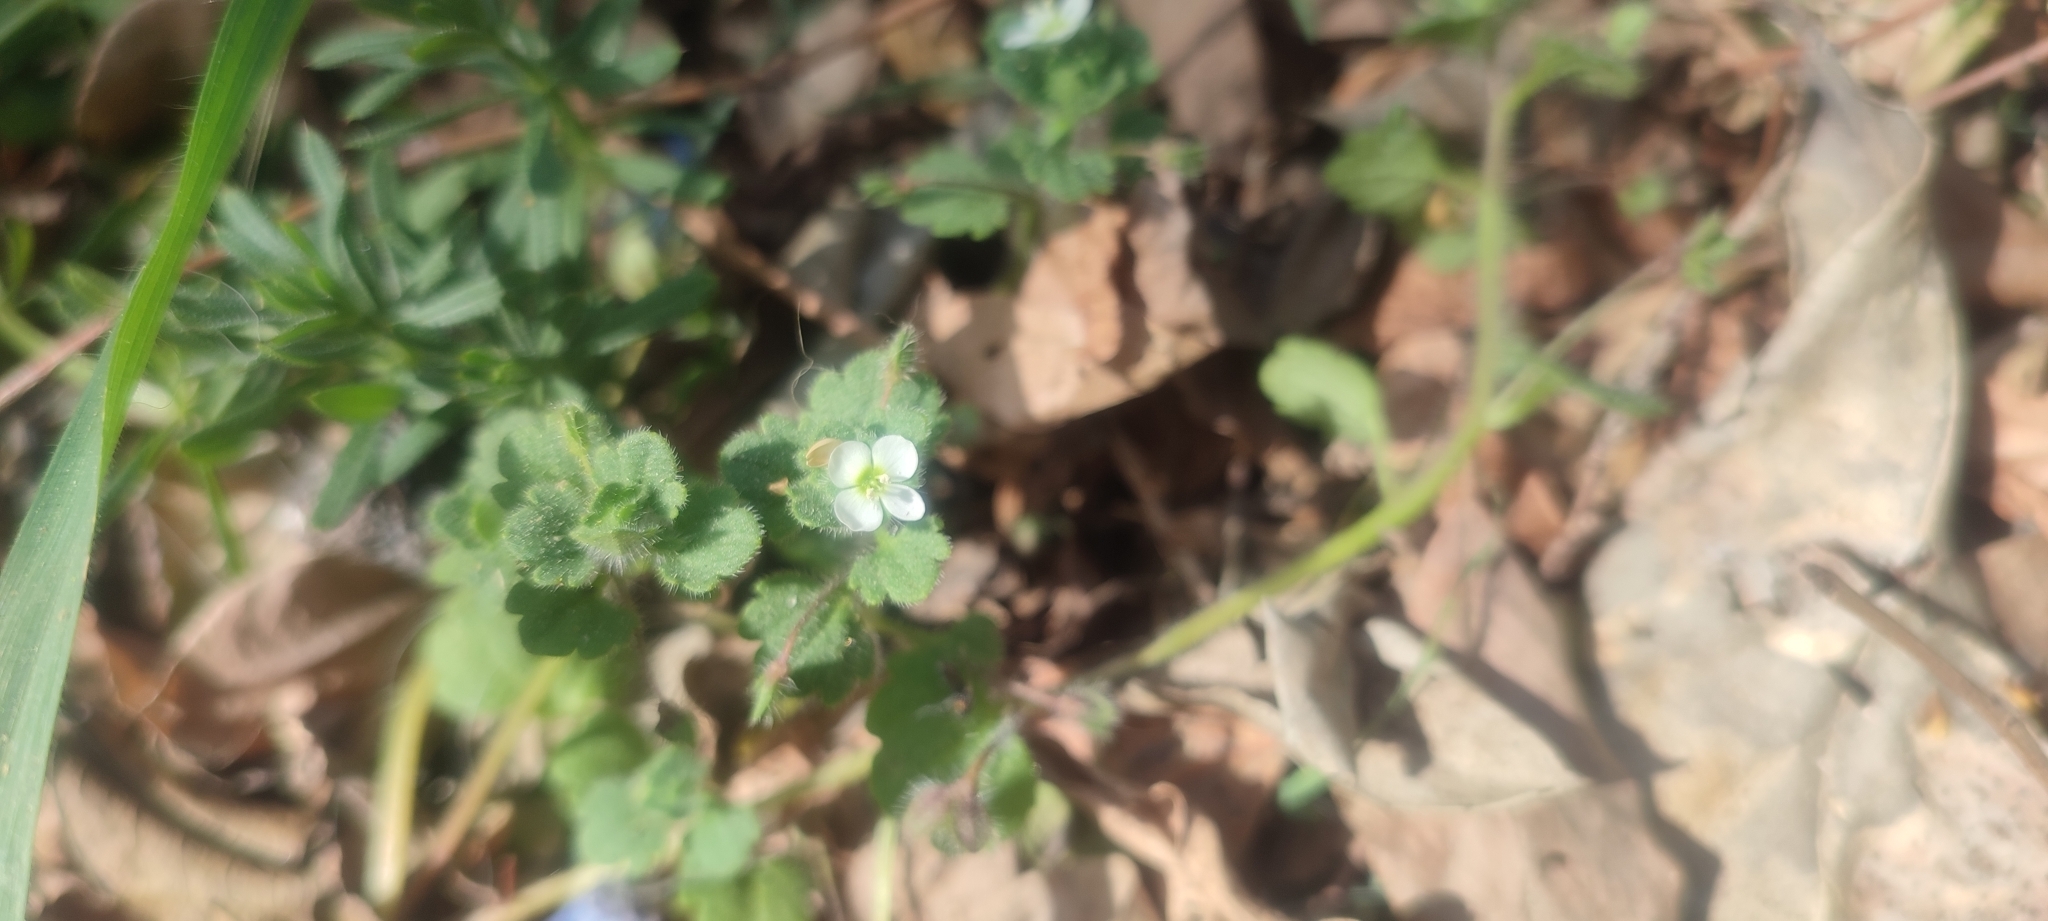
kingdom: Plantae
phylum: Tracheophyta
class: Magnoliopsida
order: Lamiales
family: Plantaginaceae
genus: Veronica
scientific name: Veronica cymbalaria
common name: Pale speedwell
